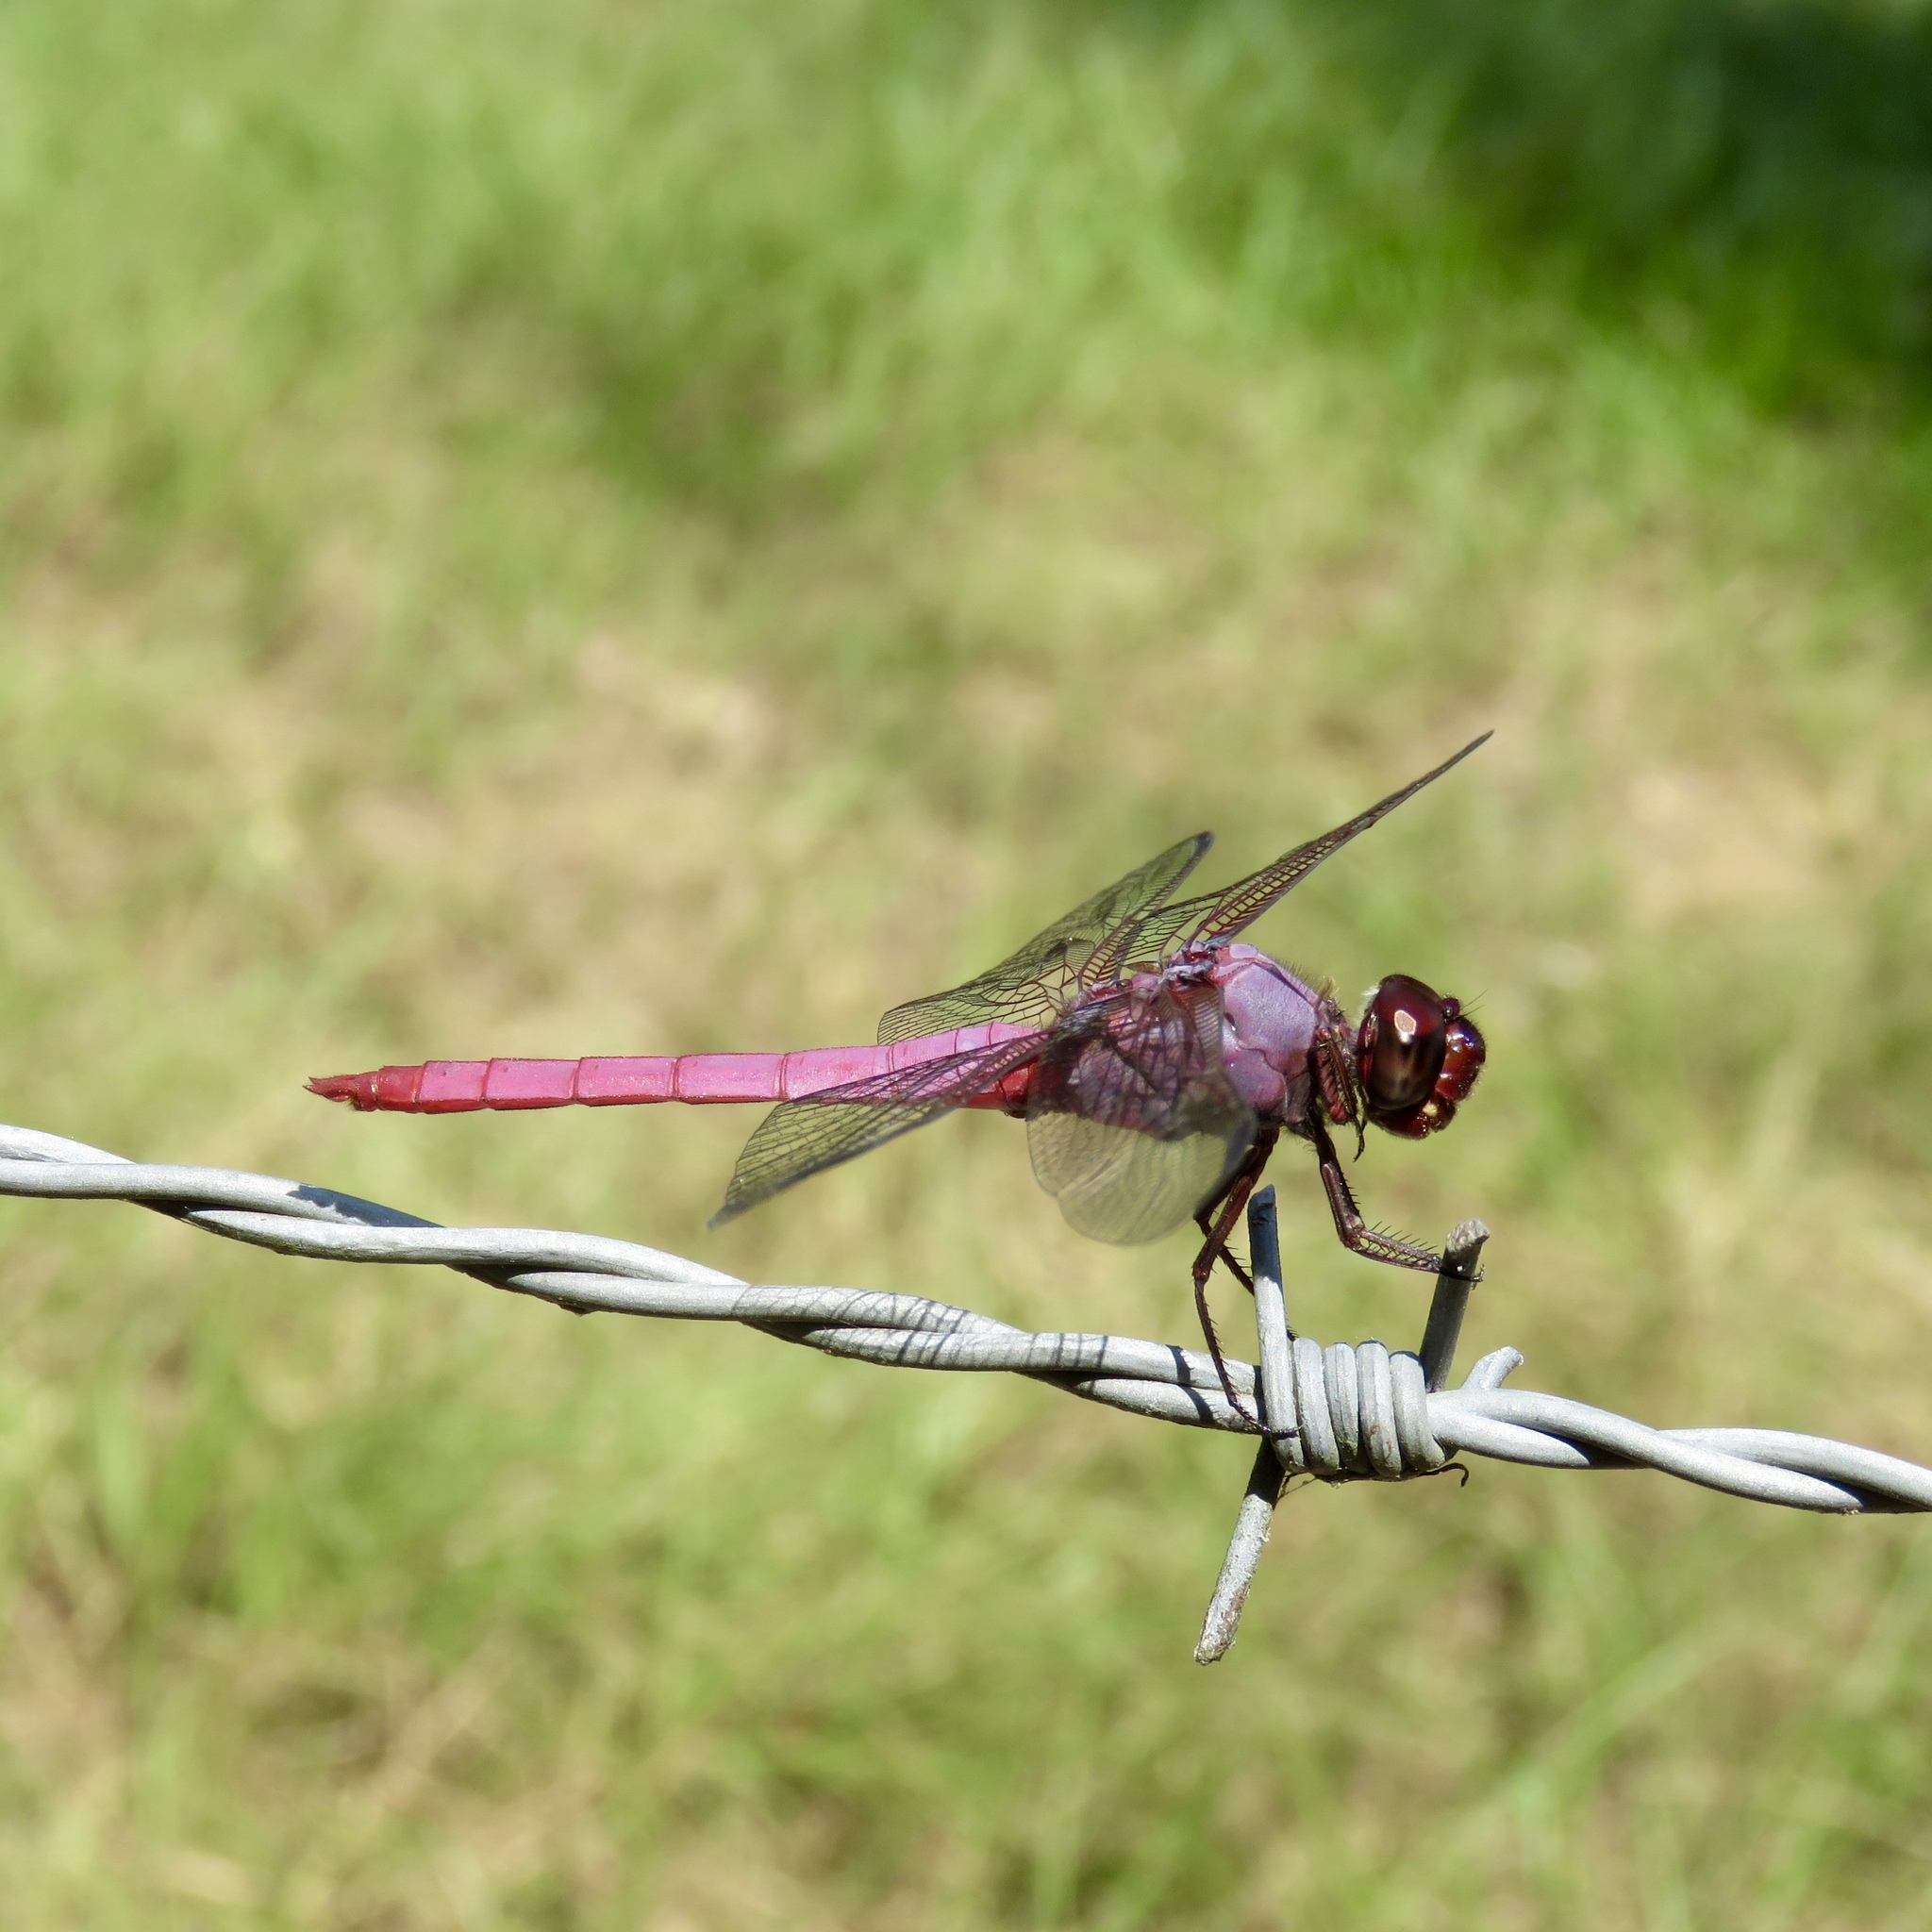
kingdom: Animalia
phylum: Arthropoda
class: Insecta
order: Odonata
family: Libellulidae
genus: Orthemis
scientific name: Orthemis ferruginea
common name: Roseate skimmer
